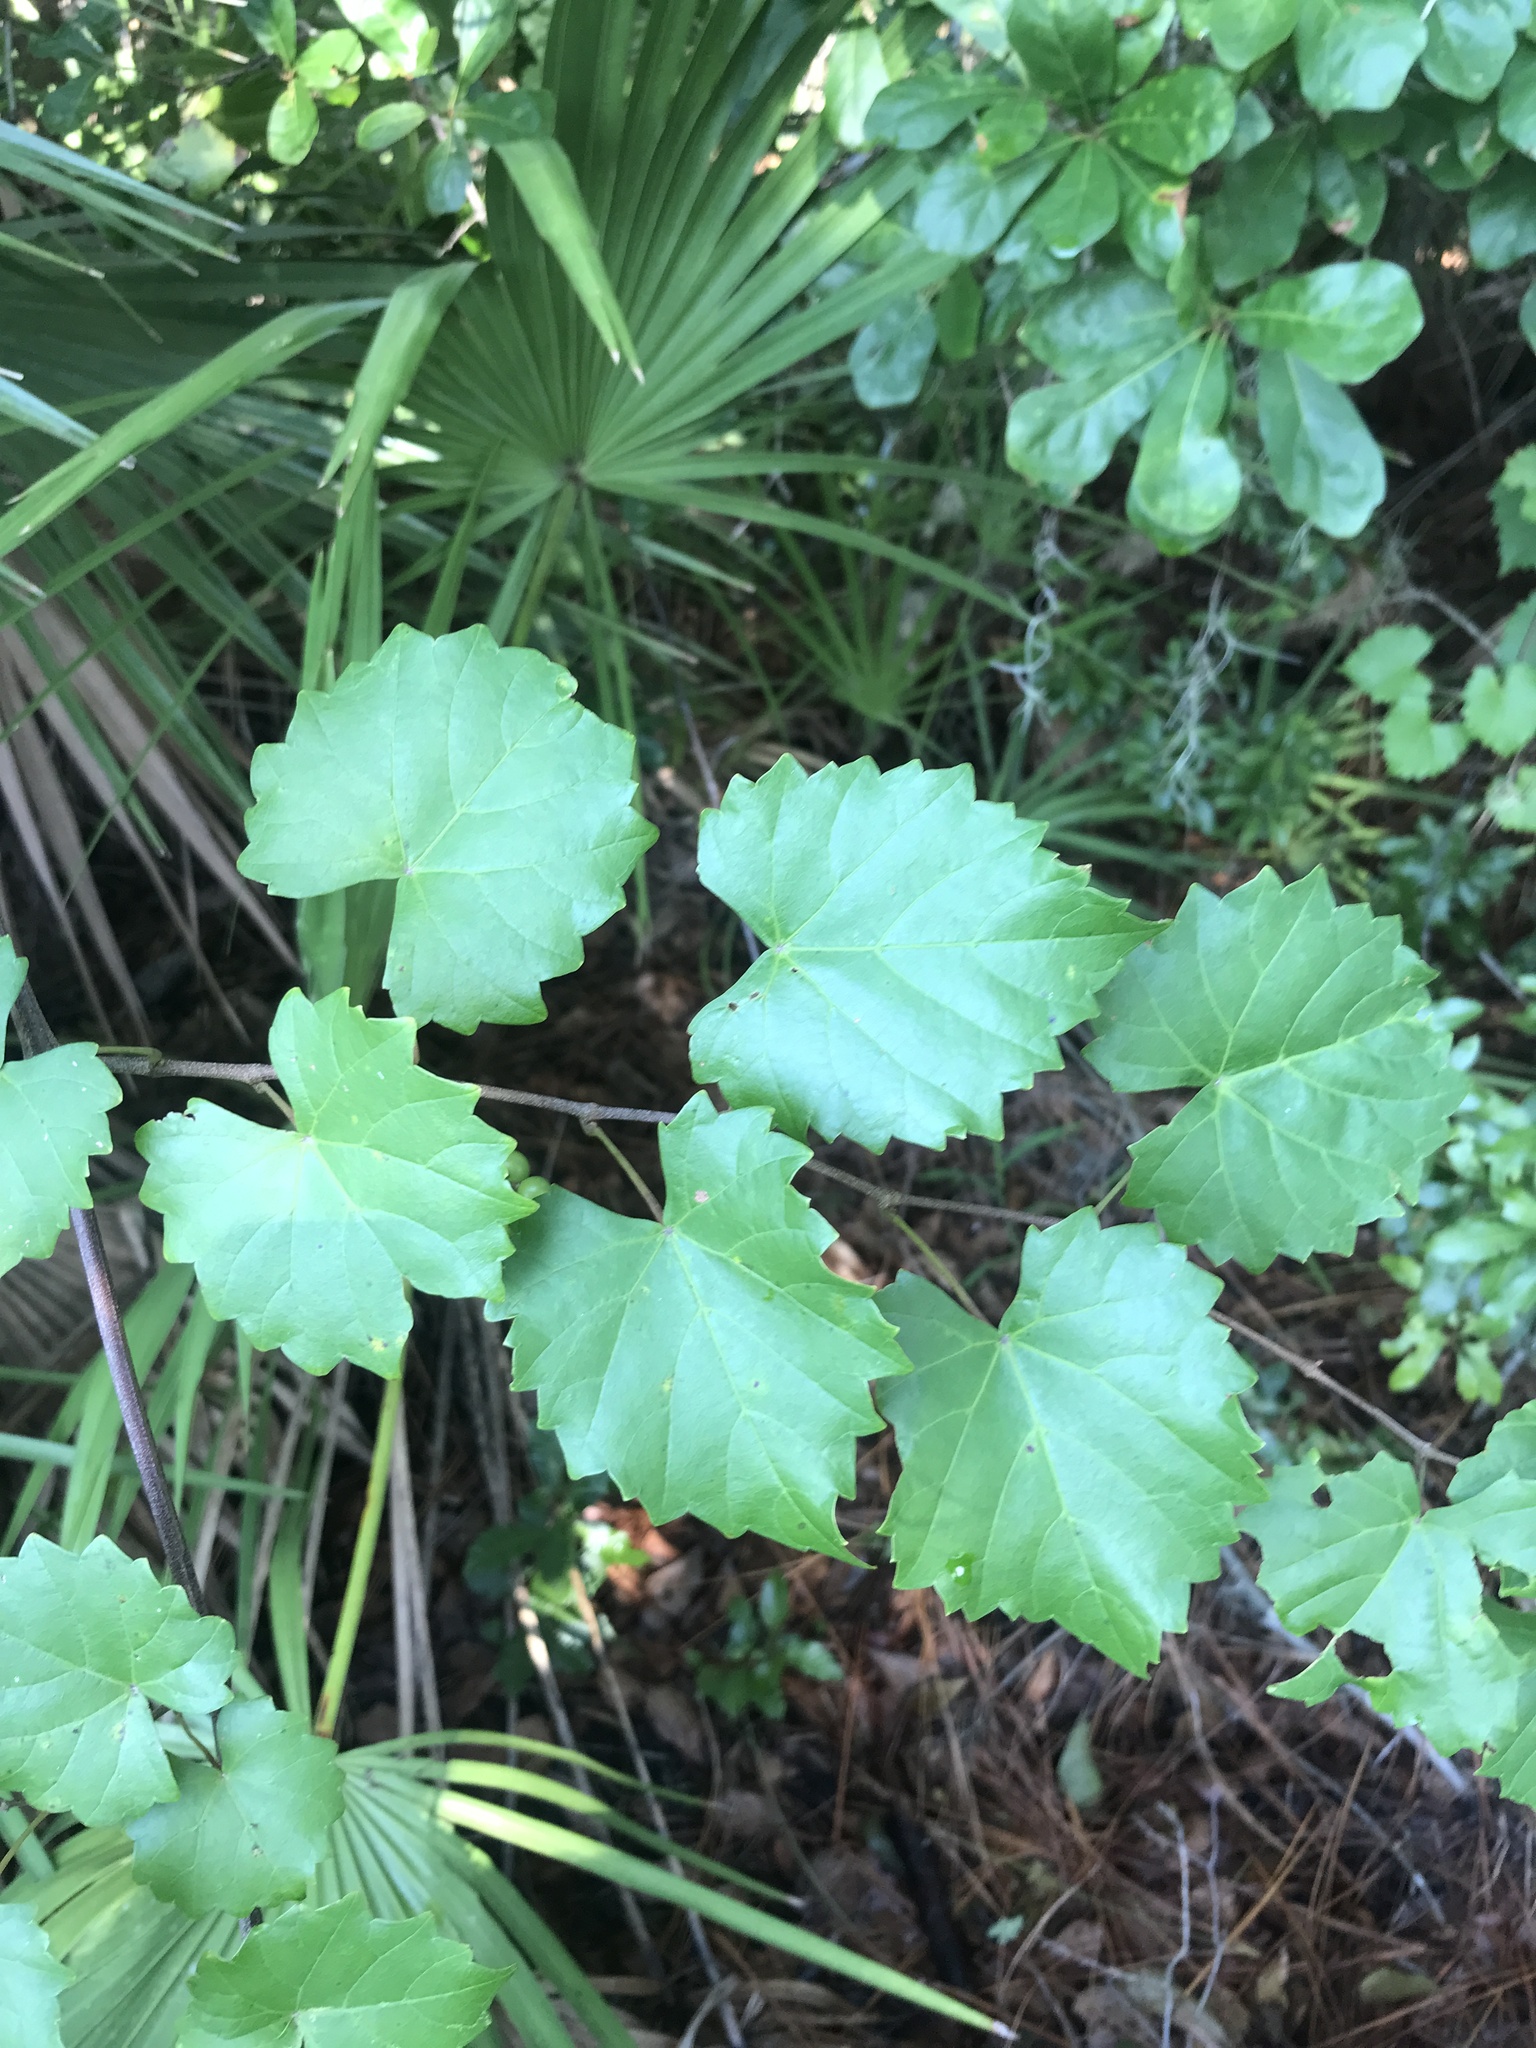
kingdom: Plantae
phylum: Tracheophyta
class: Magnoliopsida
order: Vitales
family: Vitaceae
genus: Vitis
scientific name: Vitis rotundifolia
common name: Muscadine grape
